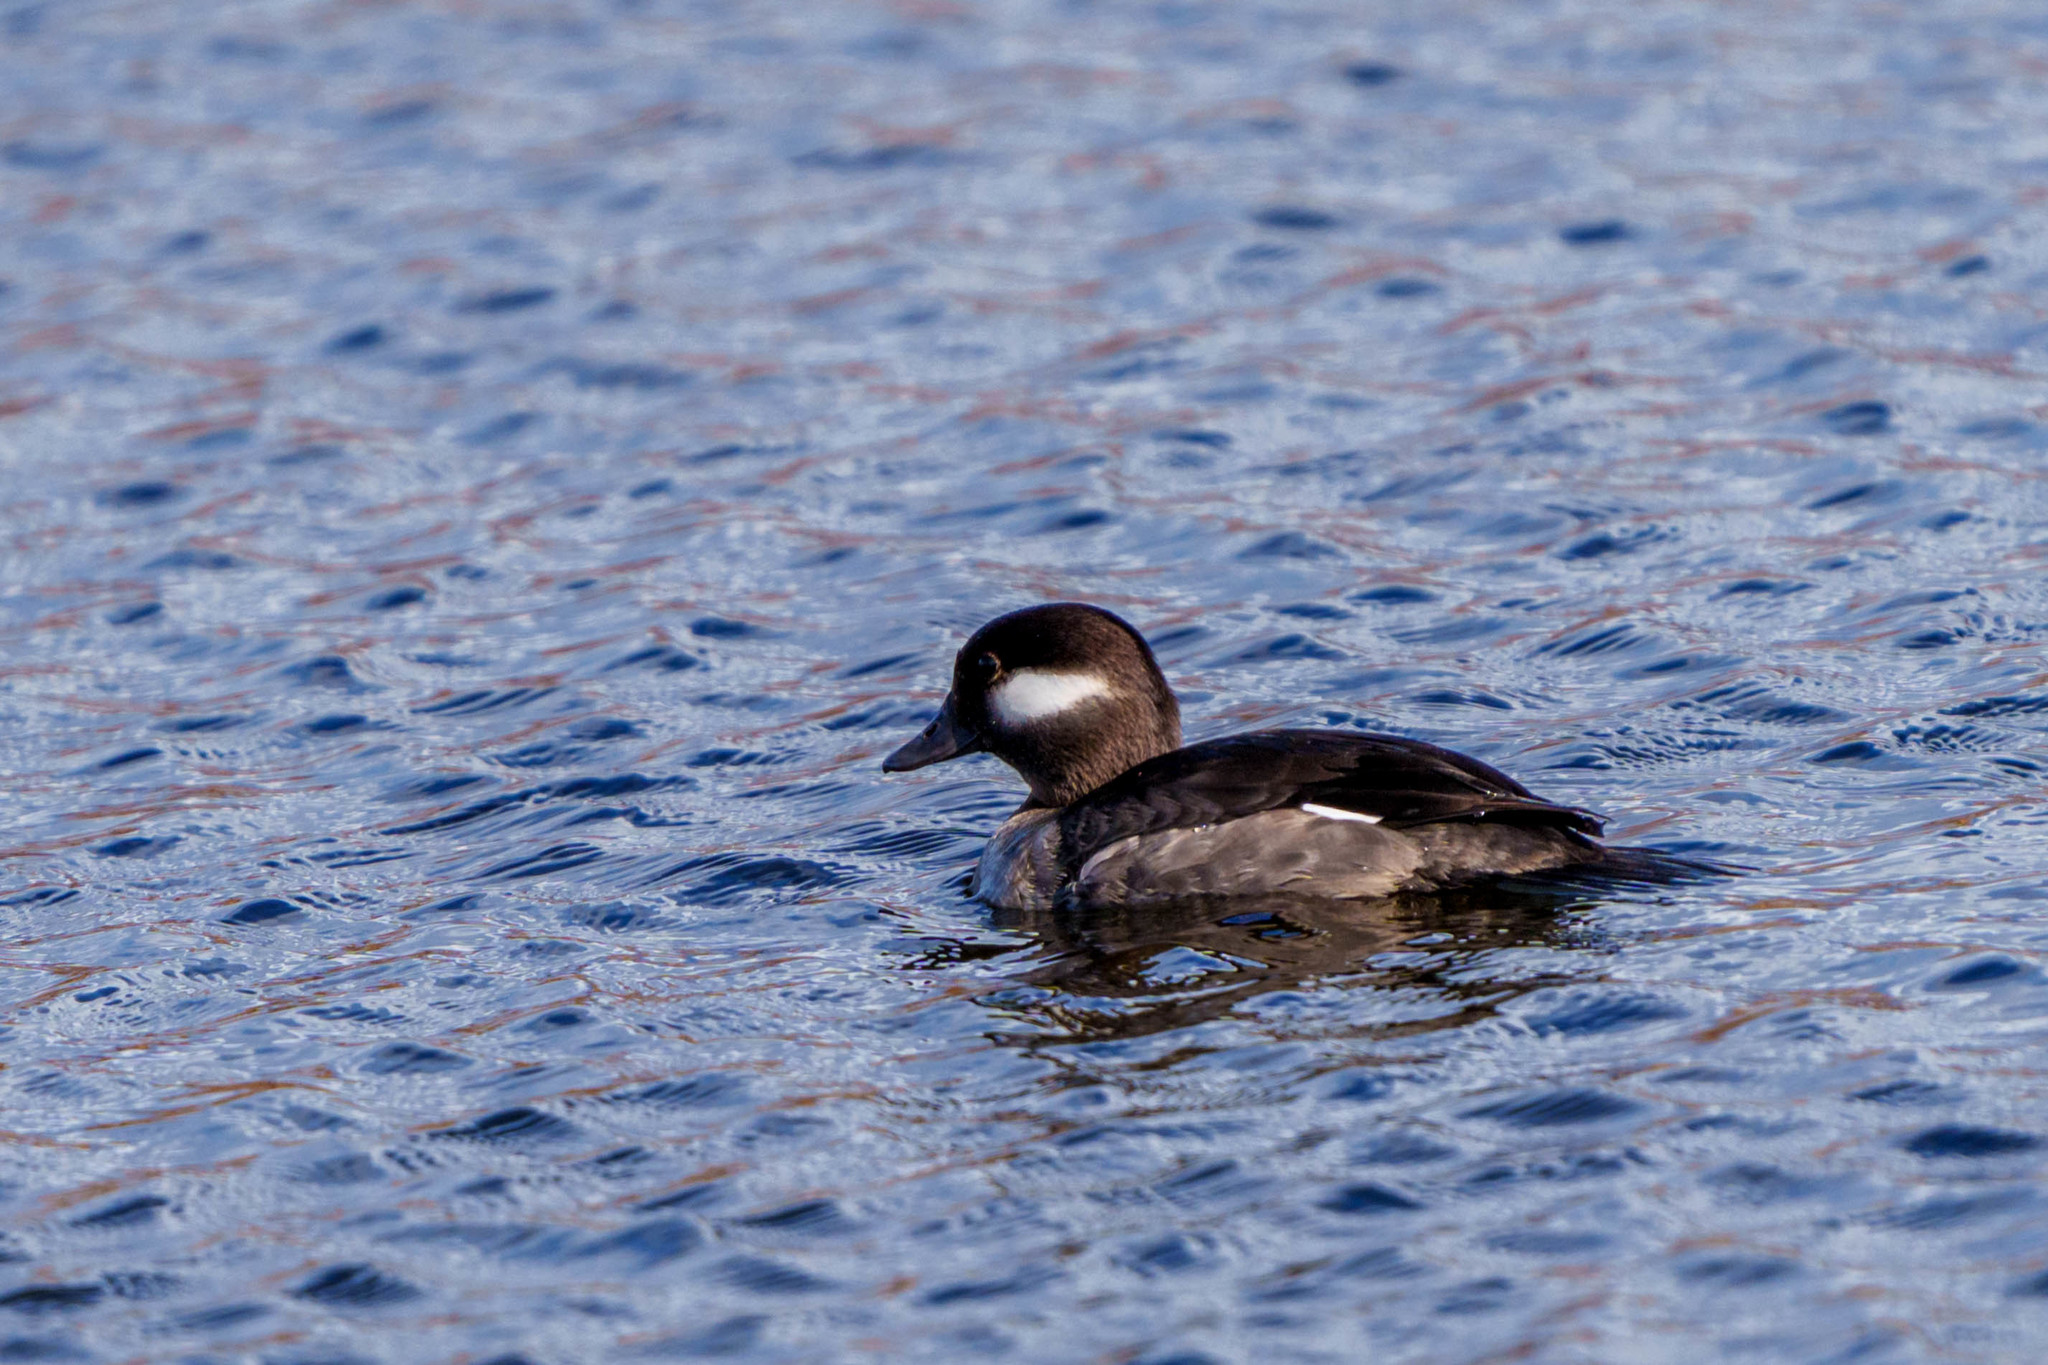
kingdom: Animalia
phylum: Chordata
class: Aves
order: Anseriformes
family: Anatidae
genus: Bucephala
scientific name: Bucephala albeola
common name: Bufflehead
